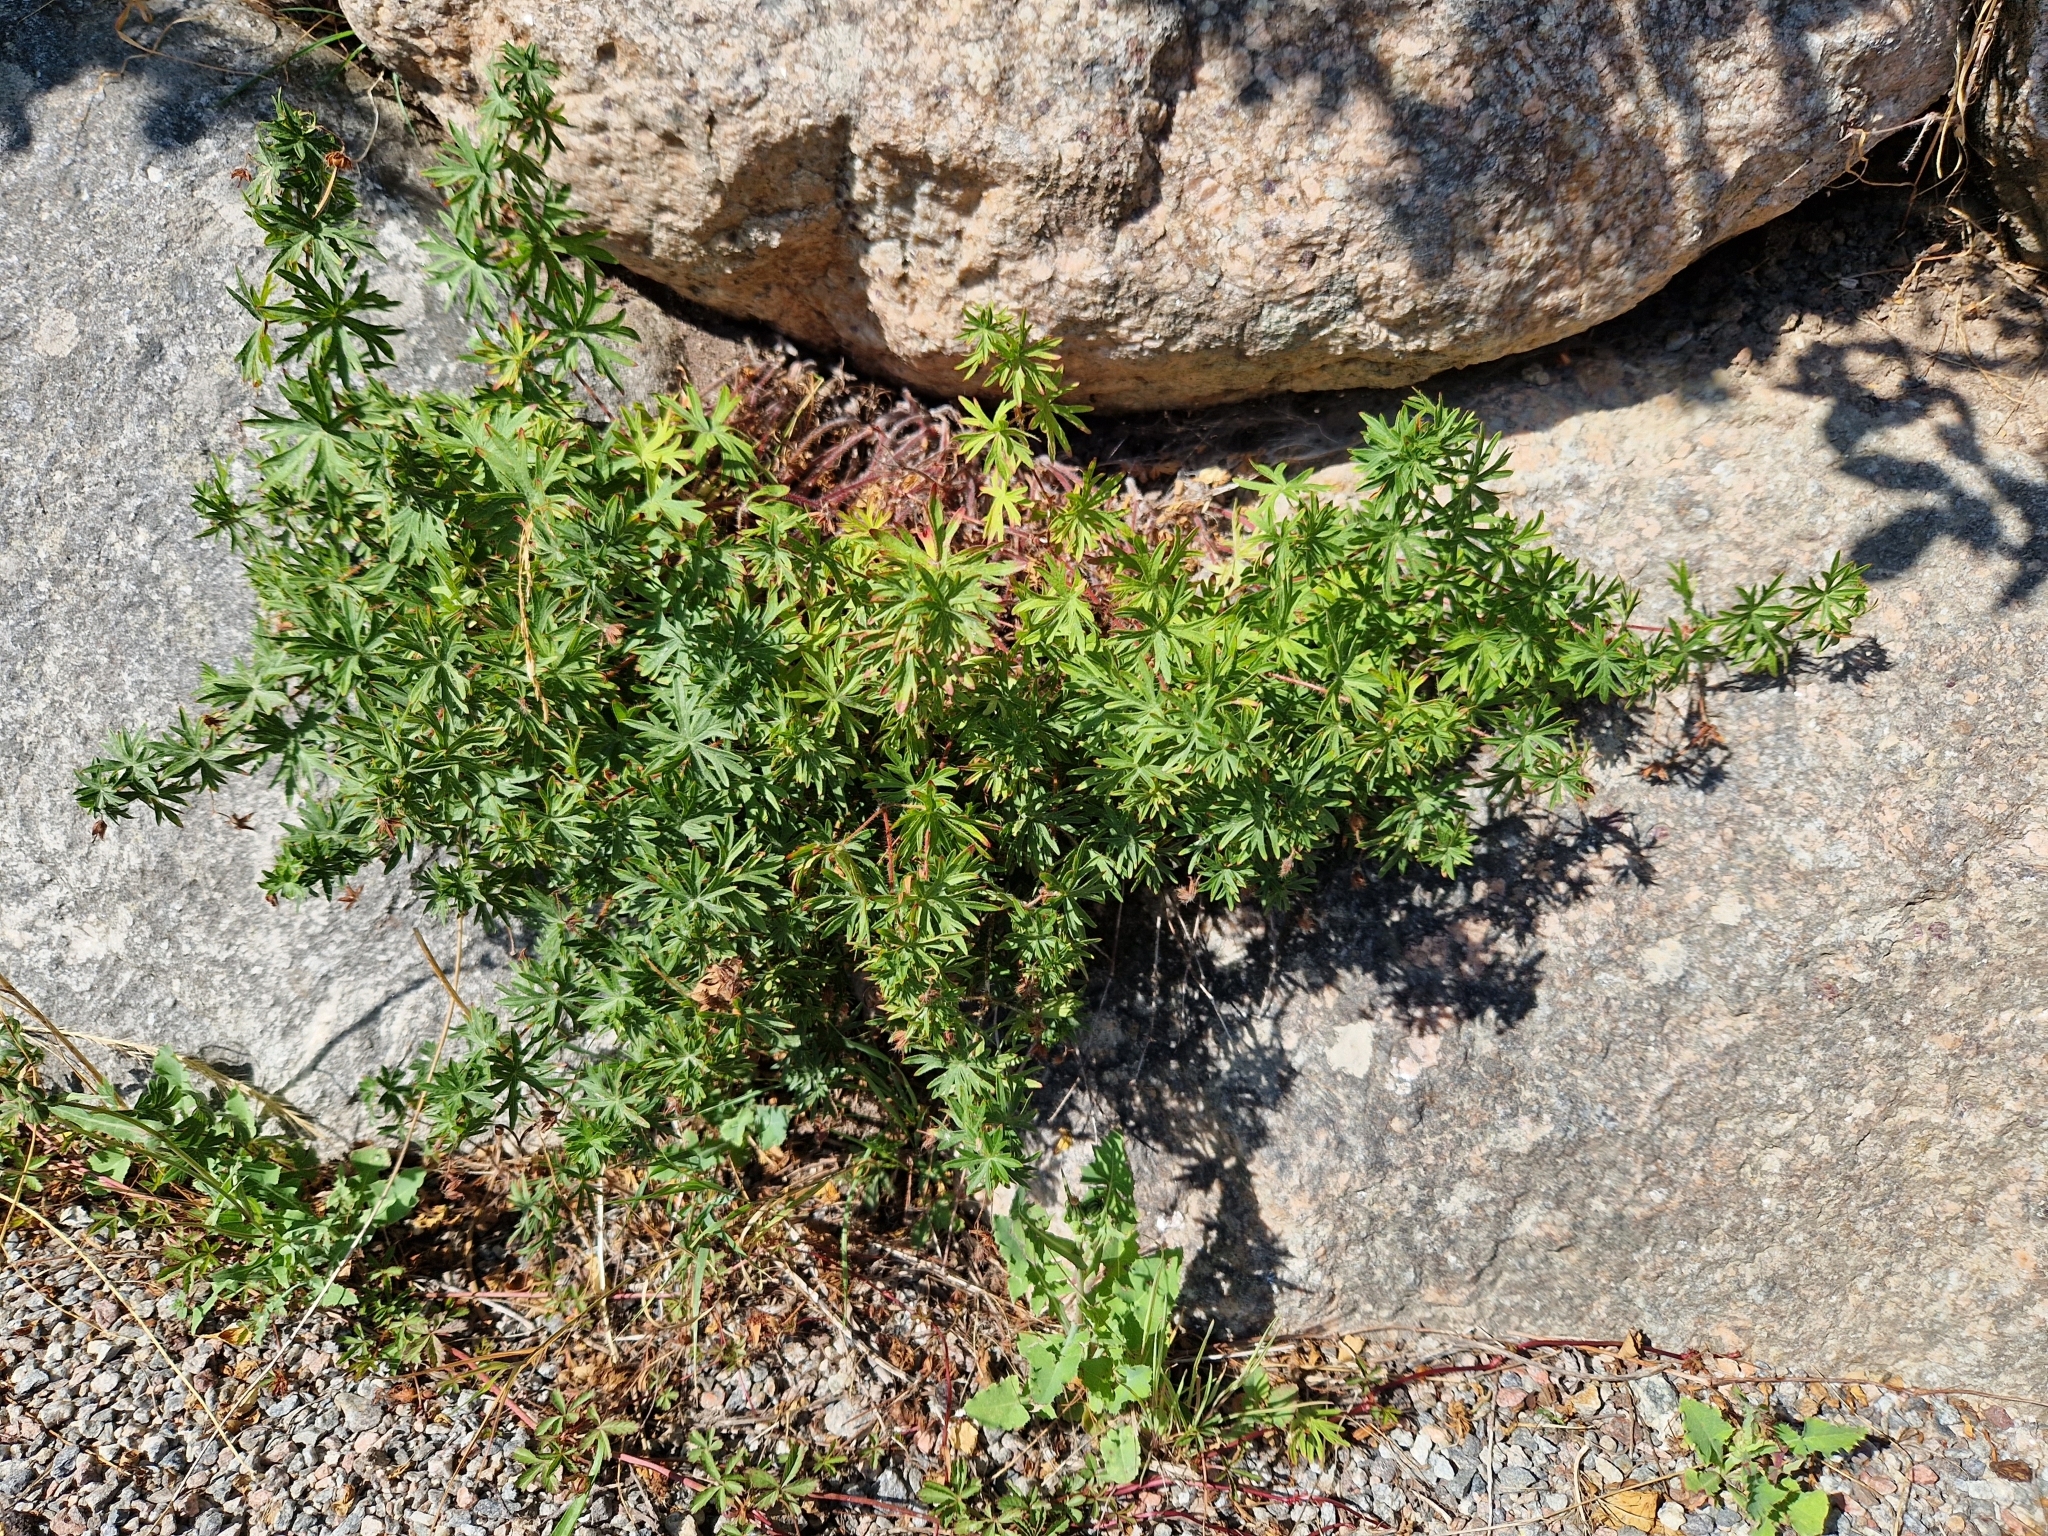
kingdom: Plantae
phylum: Tracheophyta
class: Magnoliopsida
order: Geraniales
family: Geraniaceae
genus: Geranium
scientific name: Geranium sanguineum
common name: Bloody crane's-bill
